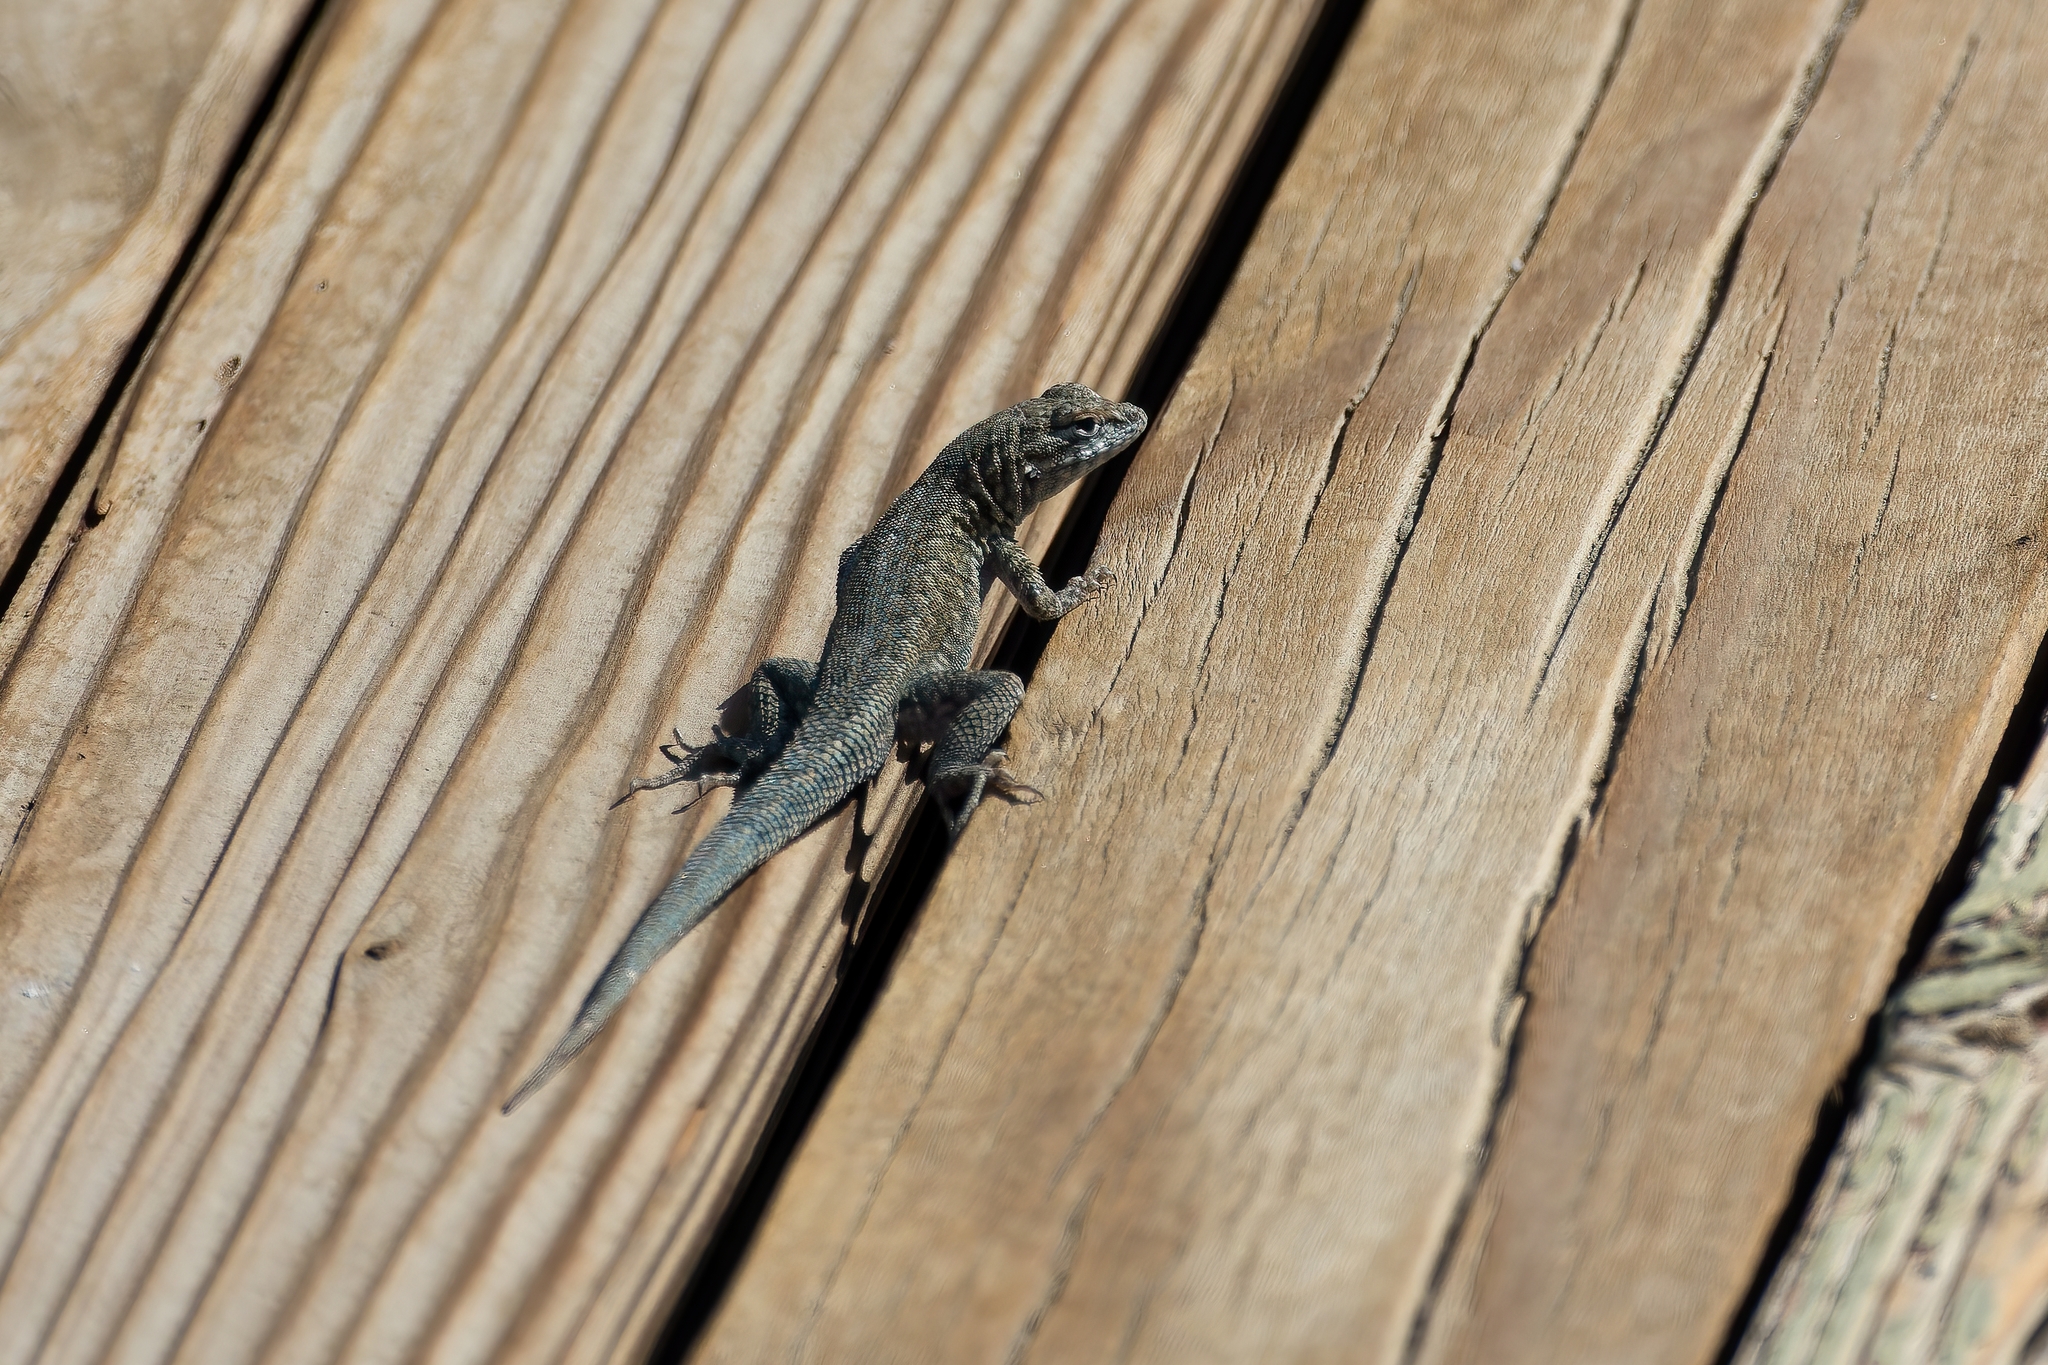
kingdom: Animalia
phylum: Chordata
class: Squamata
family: Phrynosomatidae
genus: Uta
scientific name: Uta stansburiana
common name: Side-blotched lizard
